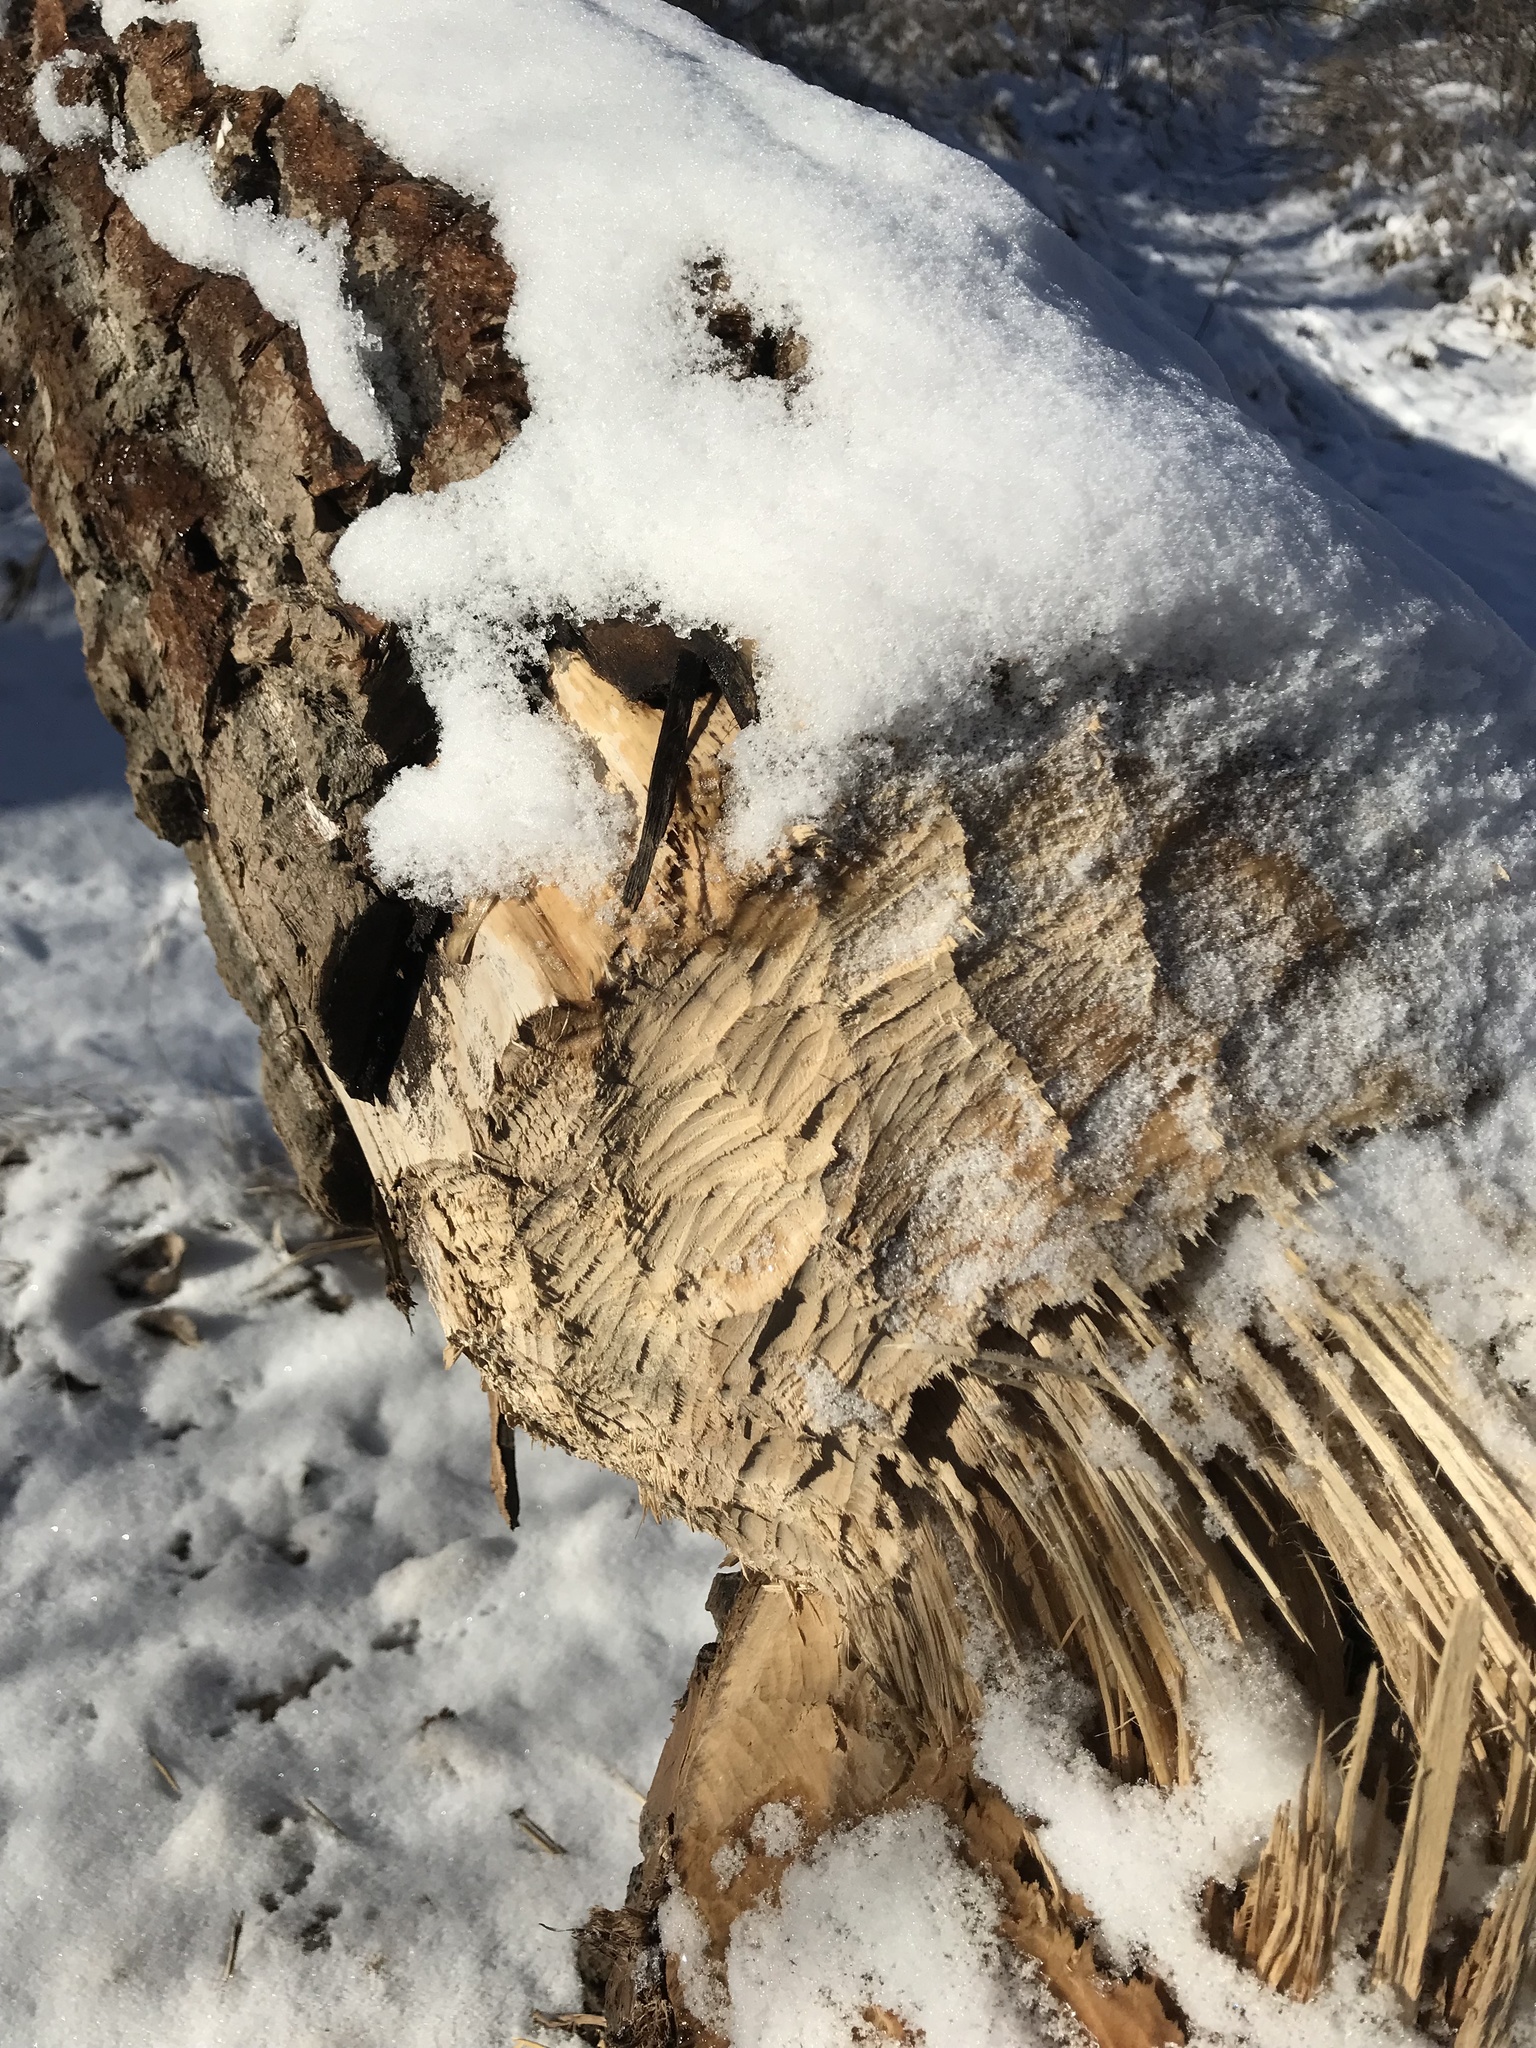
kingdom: Animalia
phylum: Chordata
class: Mammalia
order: Rodentia
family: Castoridae
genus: Castor
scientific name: Castor canadensis
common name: American beaver
